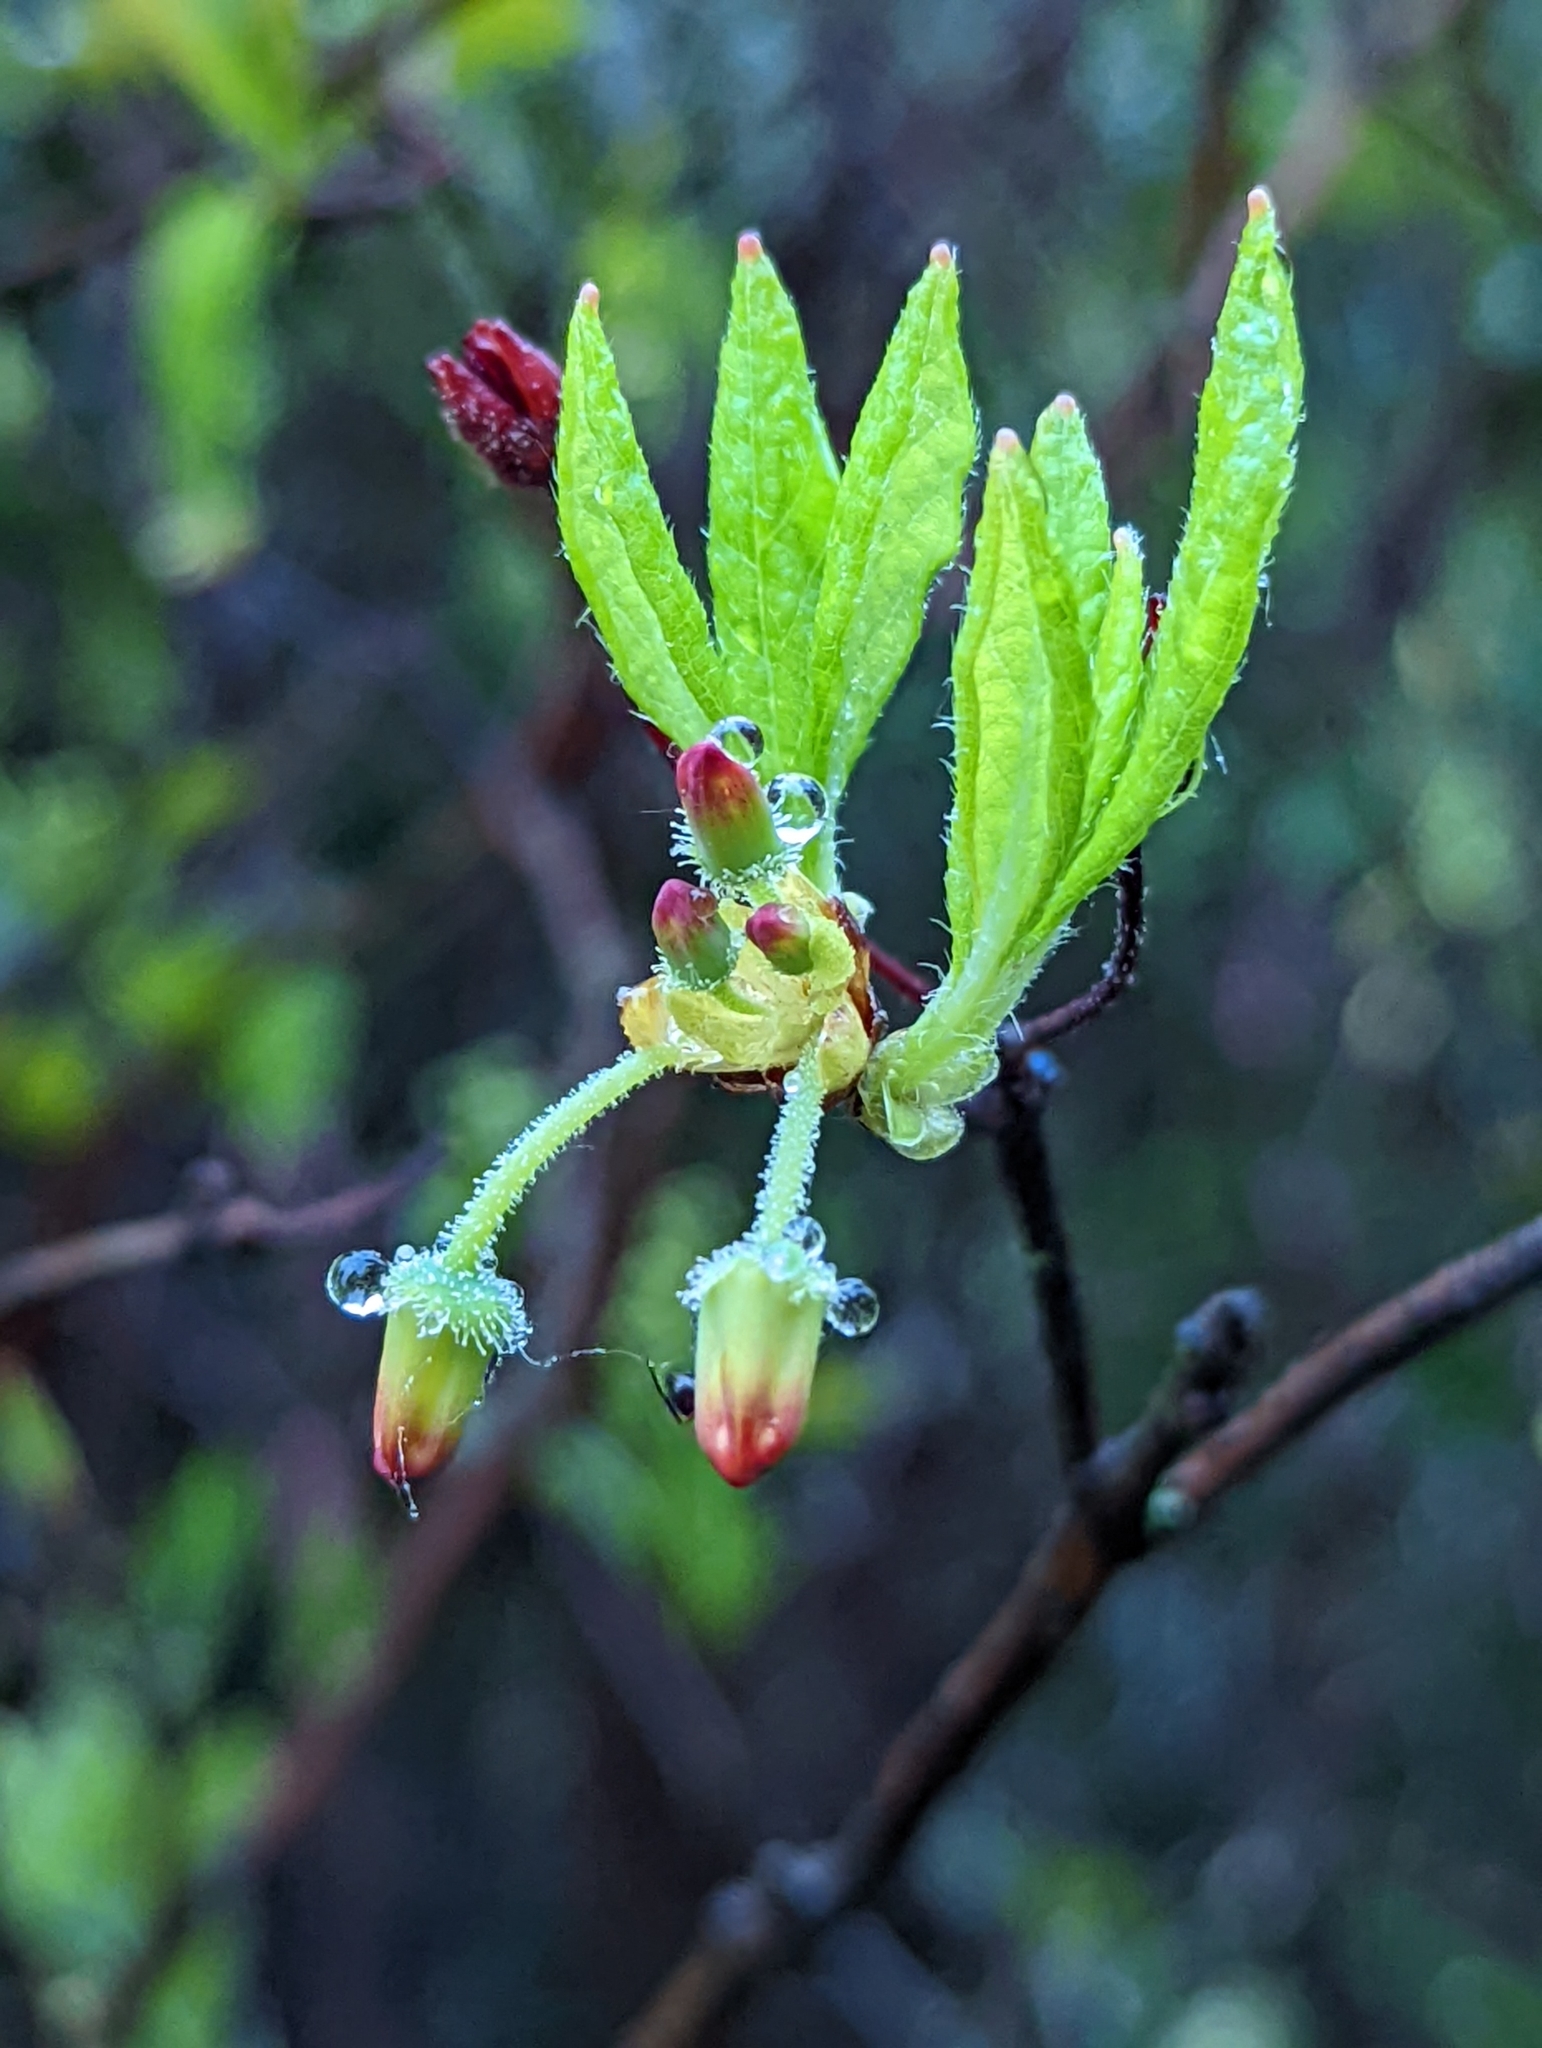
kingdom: Plantae
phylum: Tracheophyta
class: Magnoliopsida
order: Ericales
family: Ericaceae
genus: Rhododendron
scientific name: Rhododendron pilosum
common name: Hairy minniebush
